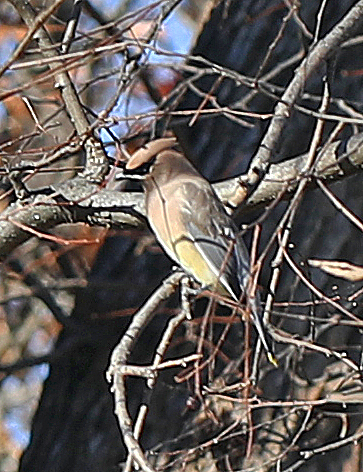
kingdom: Animalia
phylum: Chordata
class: Aves
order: Passeriformes
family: Bombycillidae
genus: Bombycilla
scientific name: Bombycilla cedrorum
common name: Cedar waxwing
